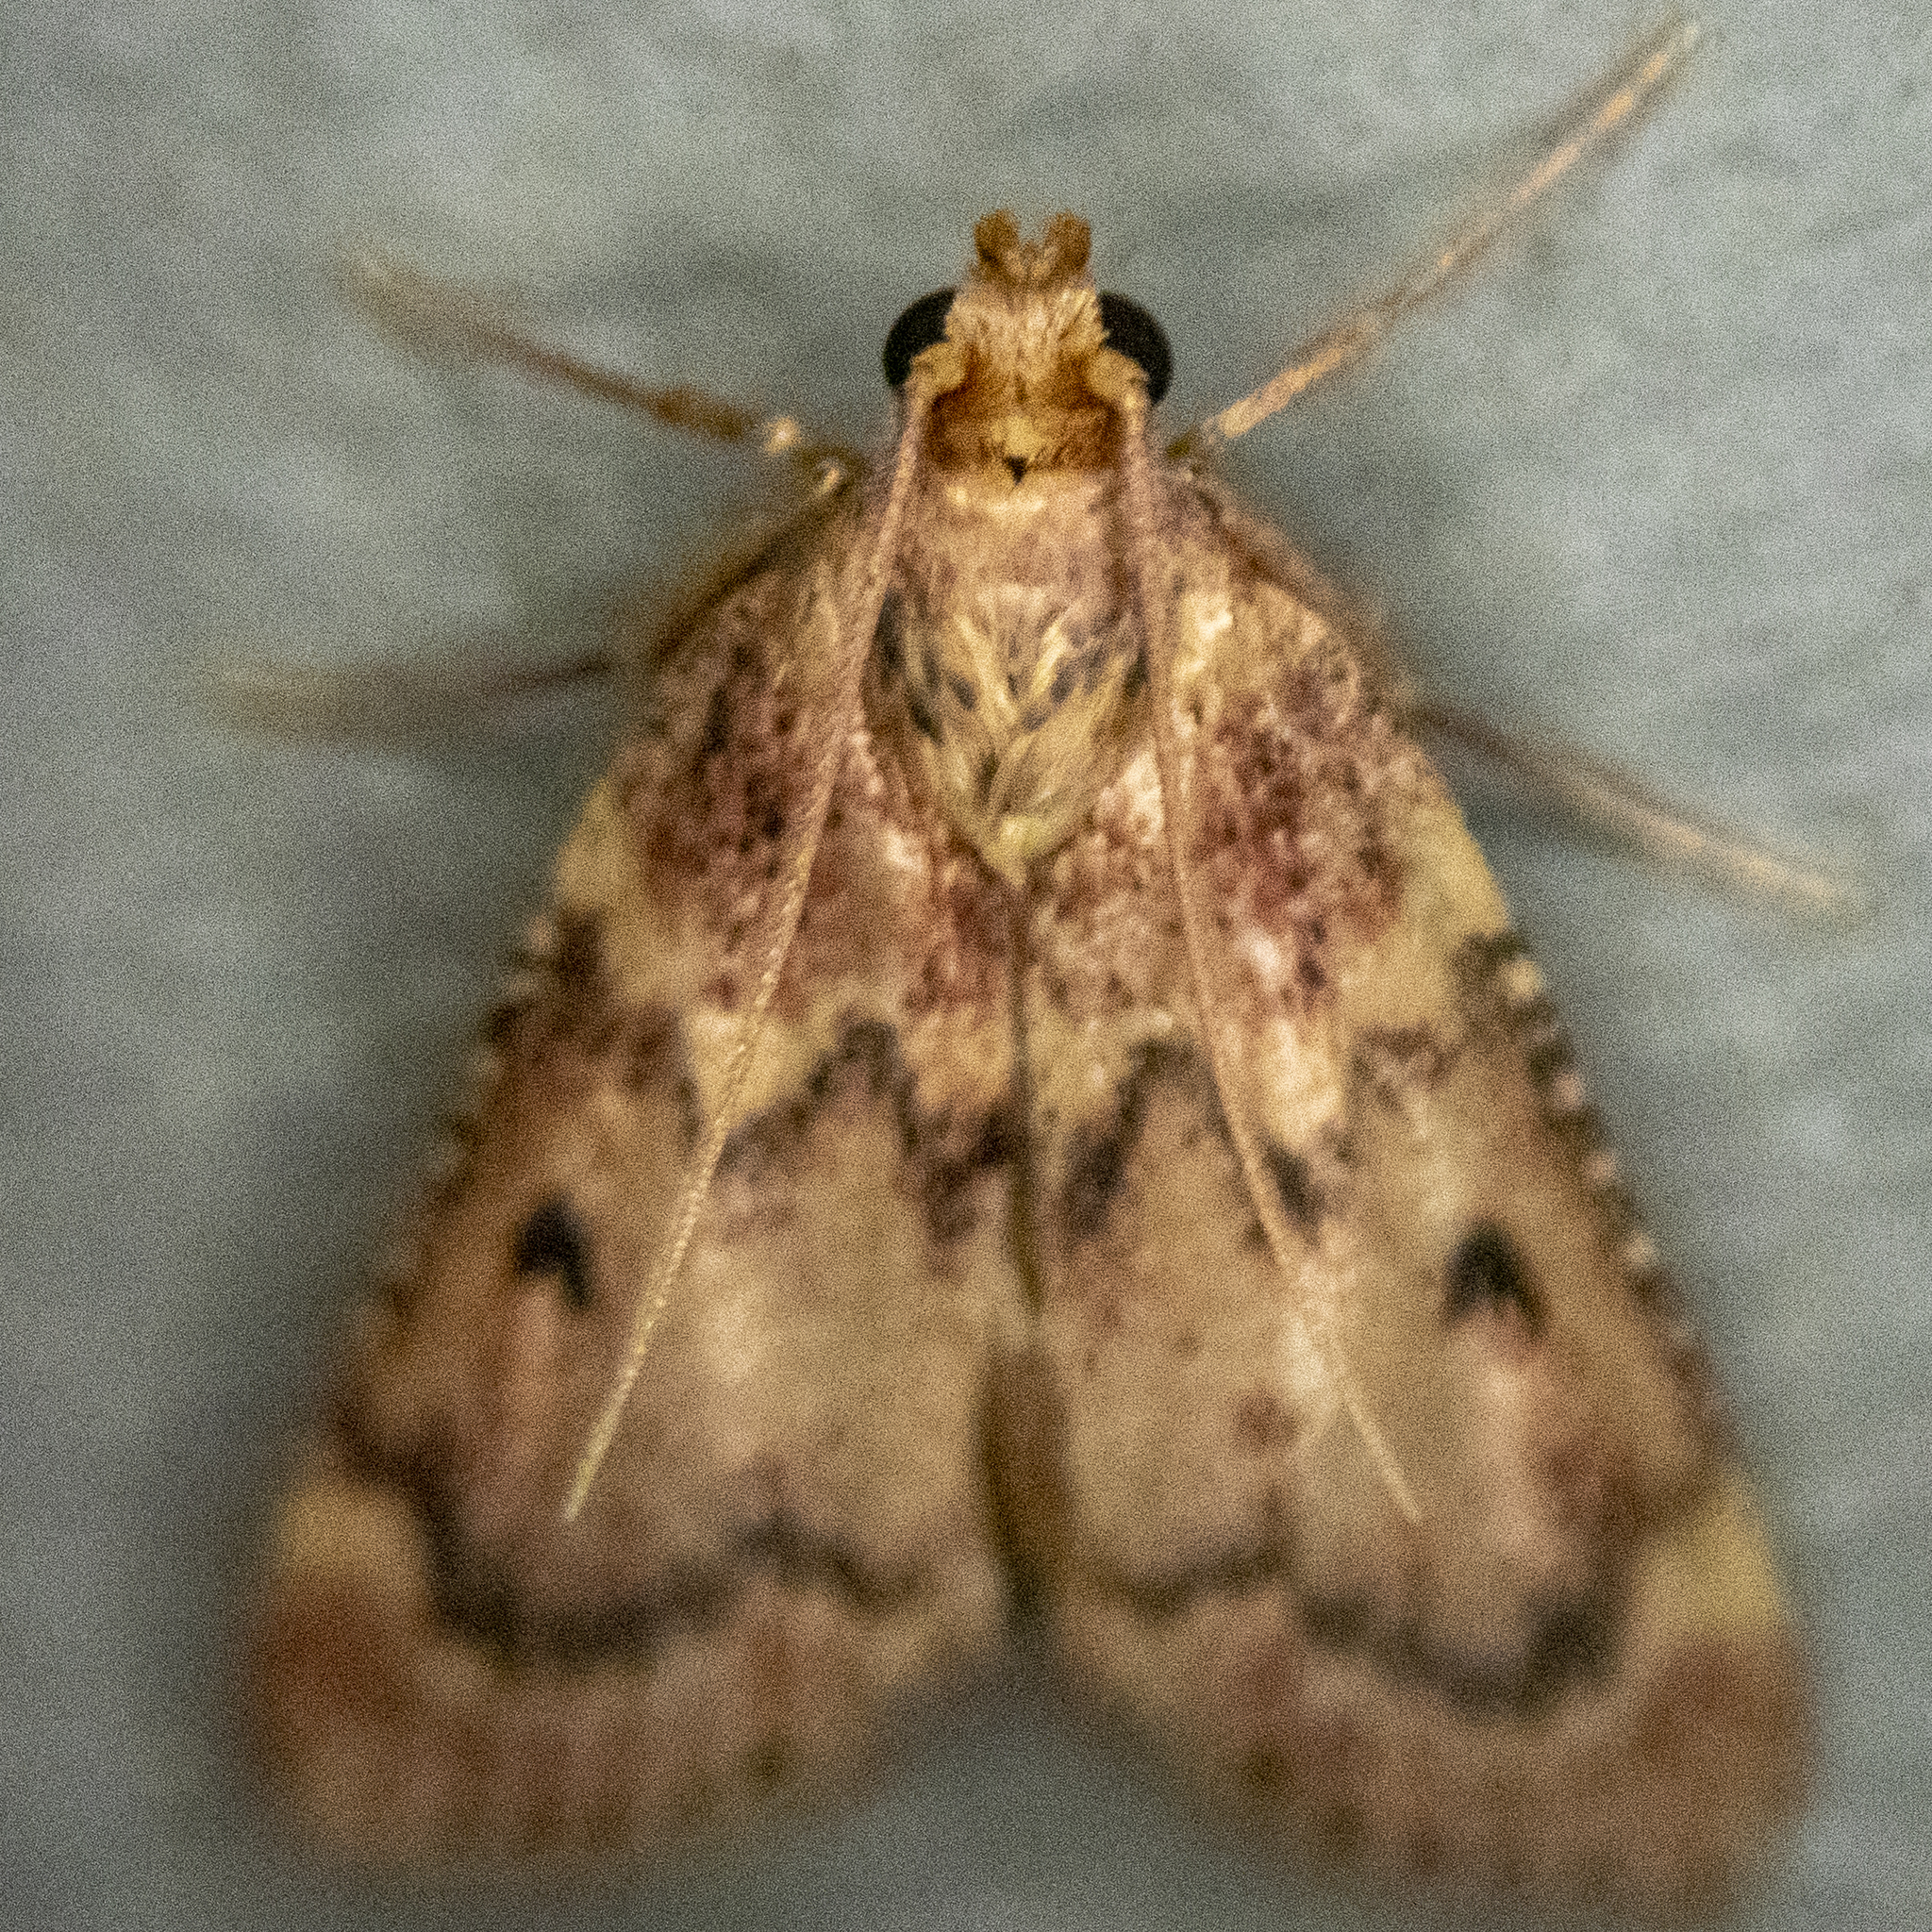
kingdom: Animalia
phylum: Arthropoda
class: Insecta
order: Lepidoptera
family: Pyralidae
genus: Aglossa
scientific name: Aglossa disciferalis
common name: Pink-masked pyralid moth
